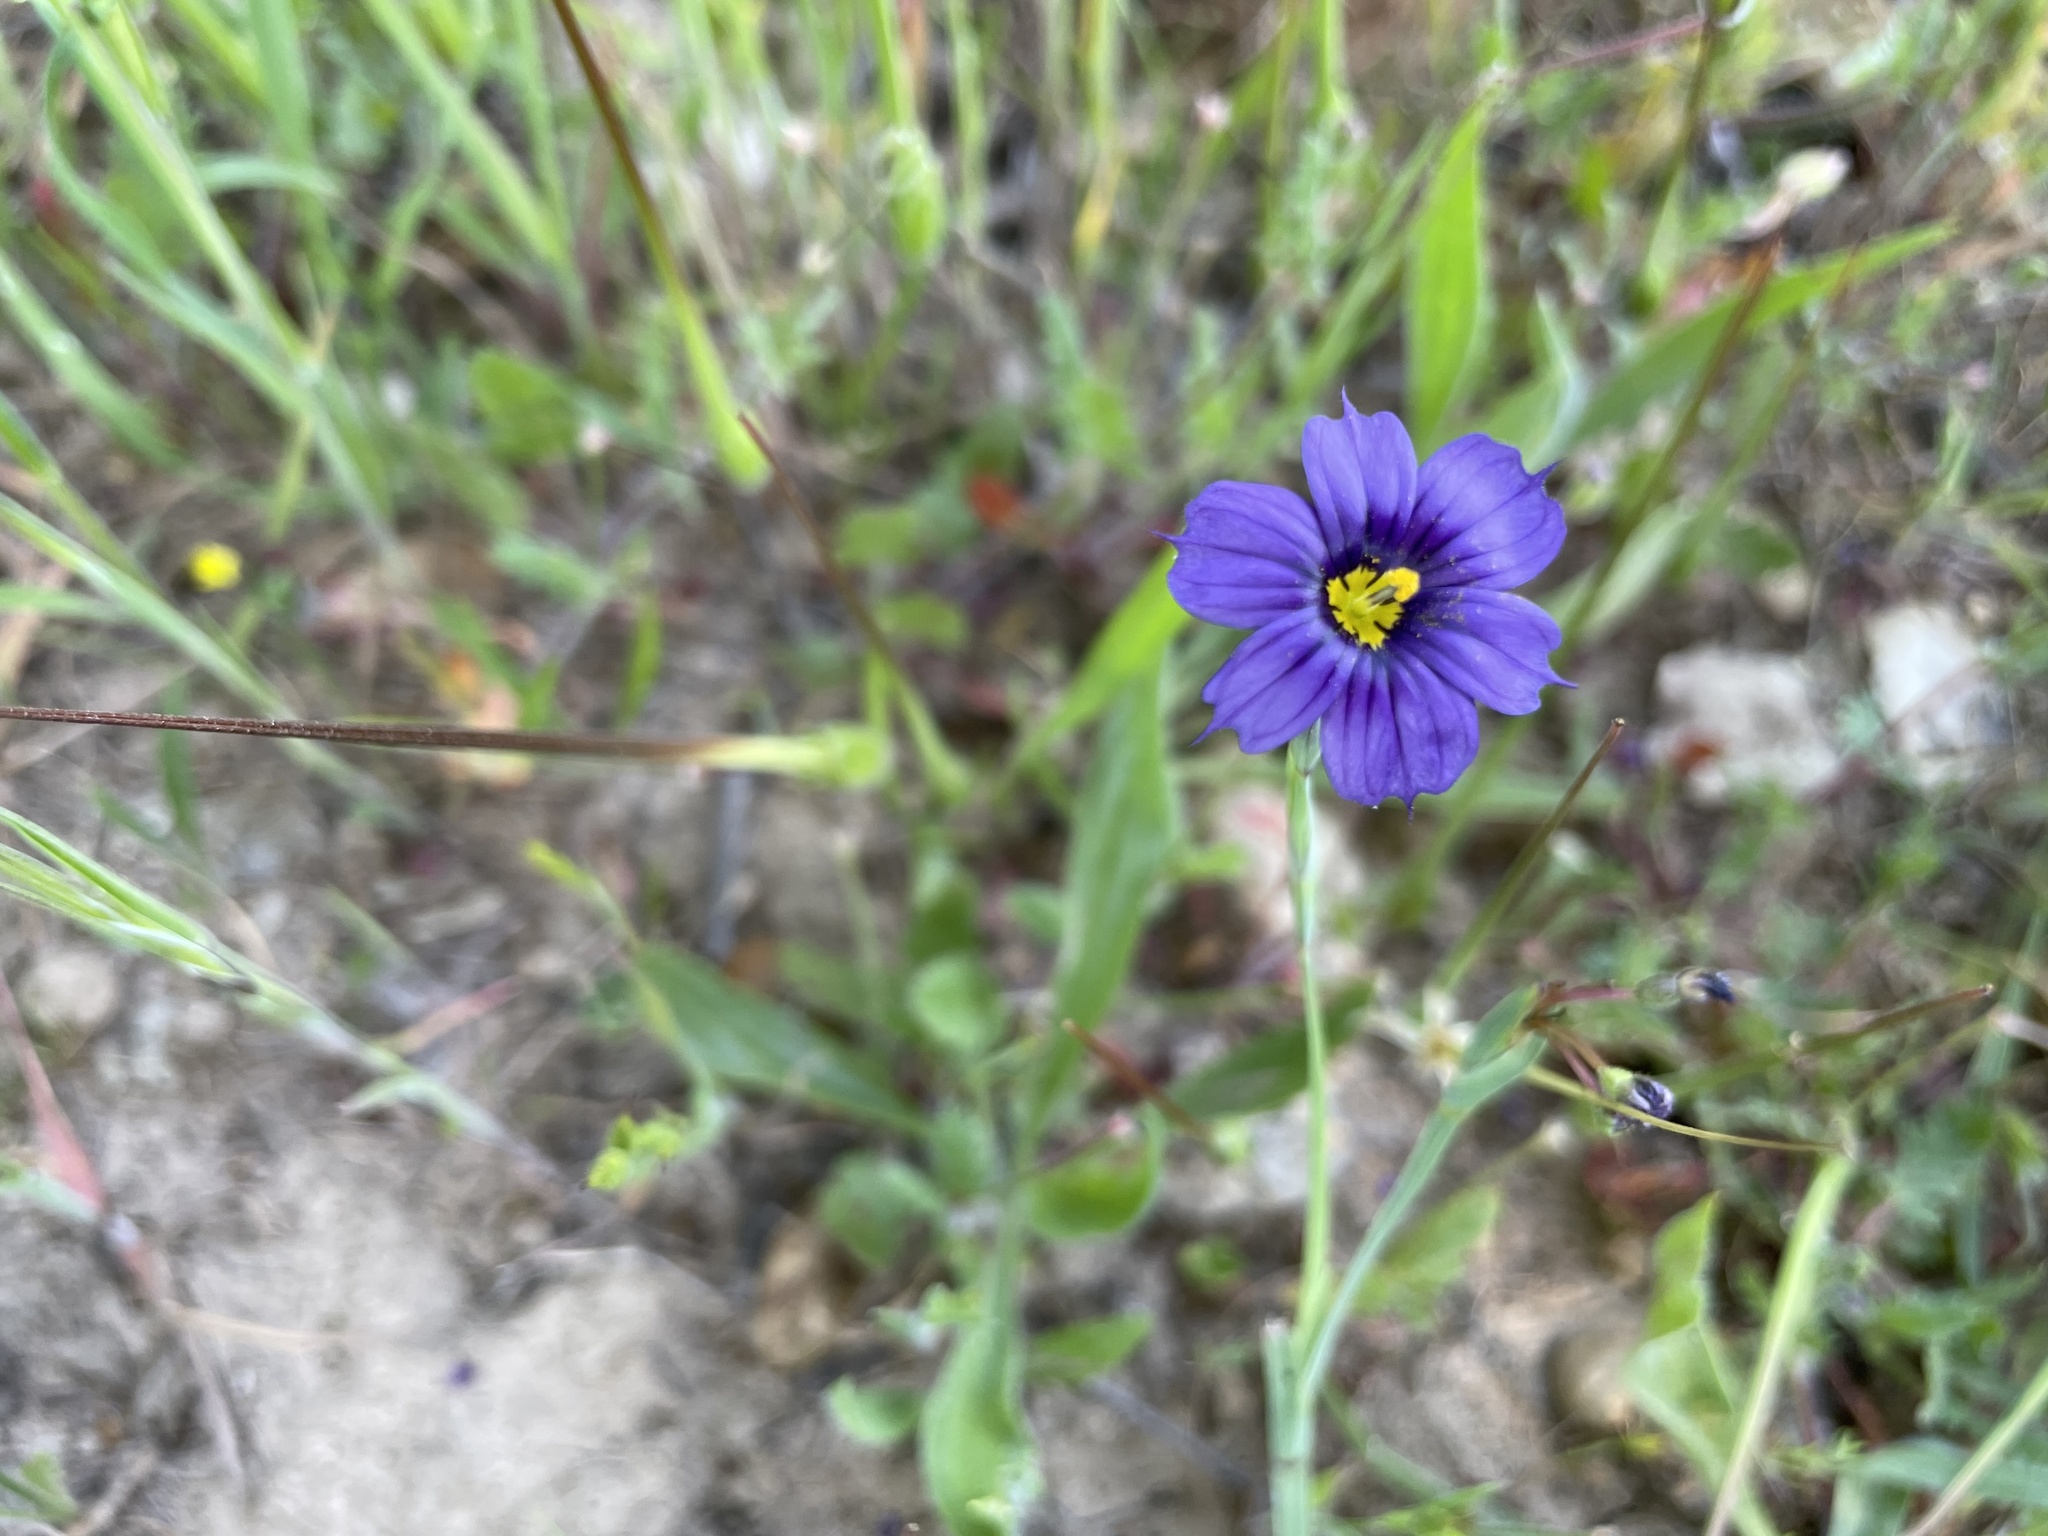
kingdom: Plantae
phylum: Tracheophyta
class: Liliopsida
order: Asparagales
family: Iridaceae
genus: Sisyrinchium
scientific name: Sisyrinchium bellum
